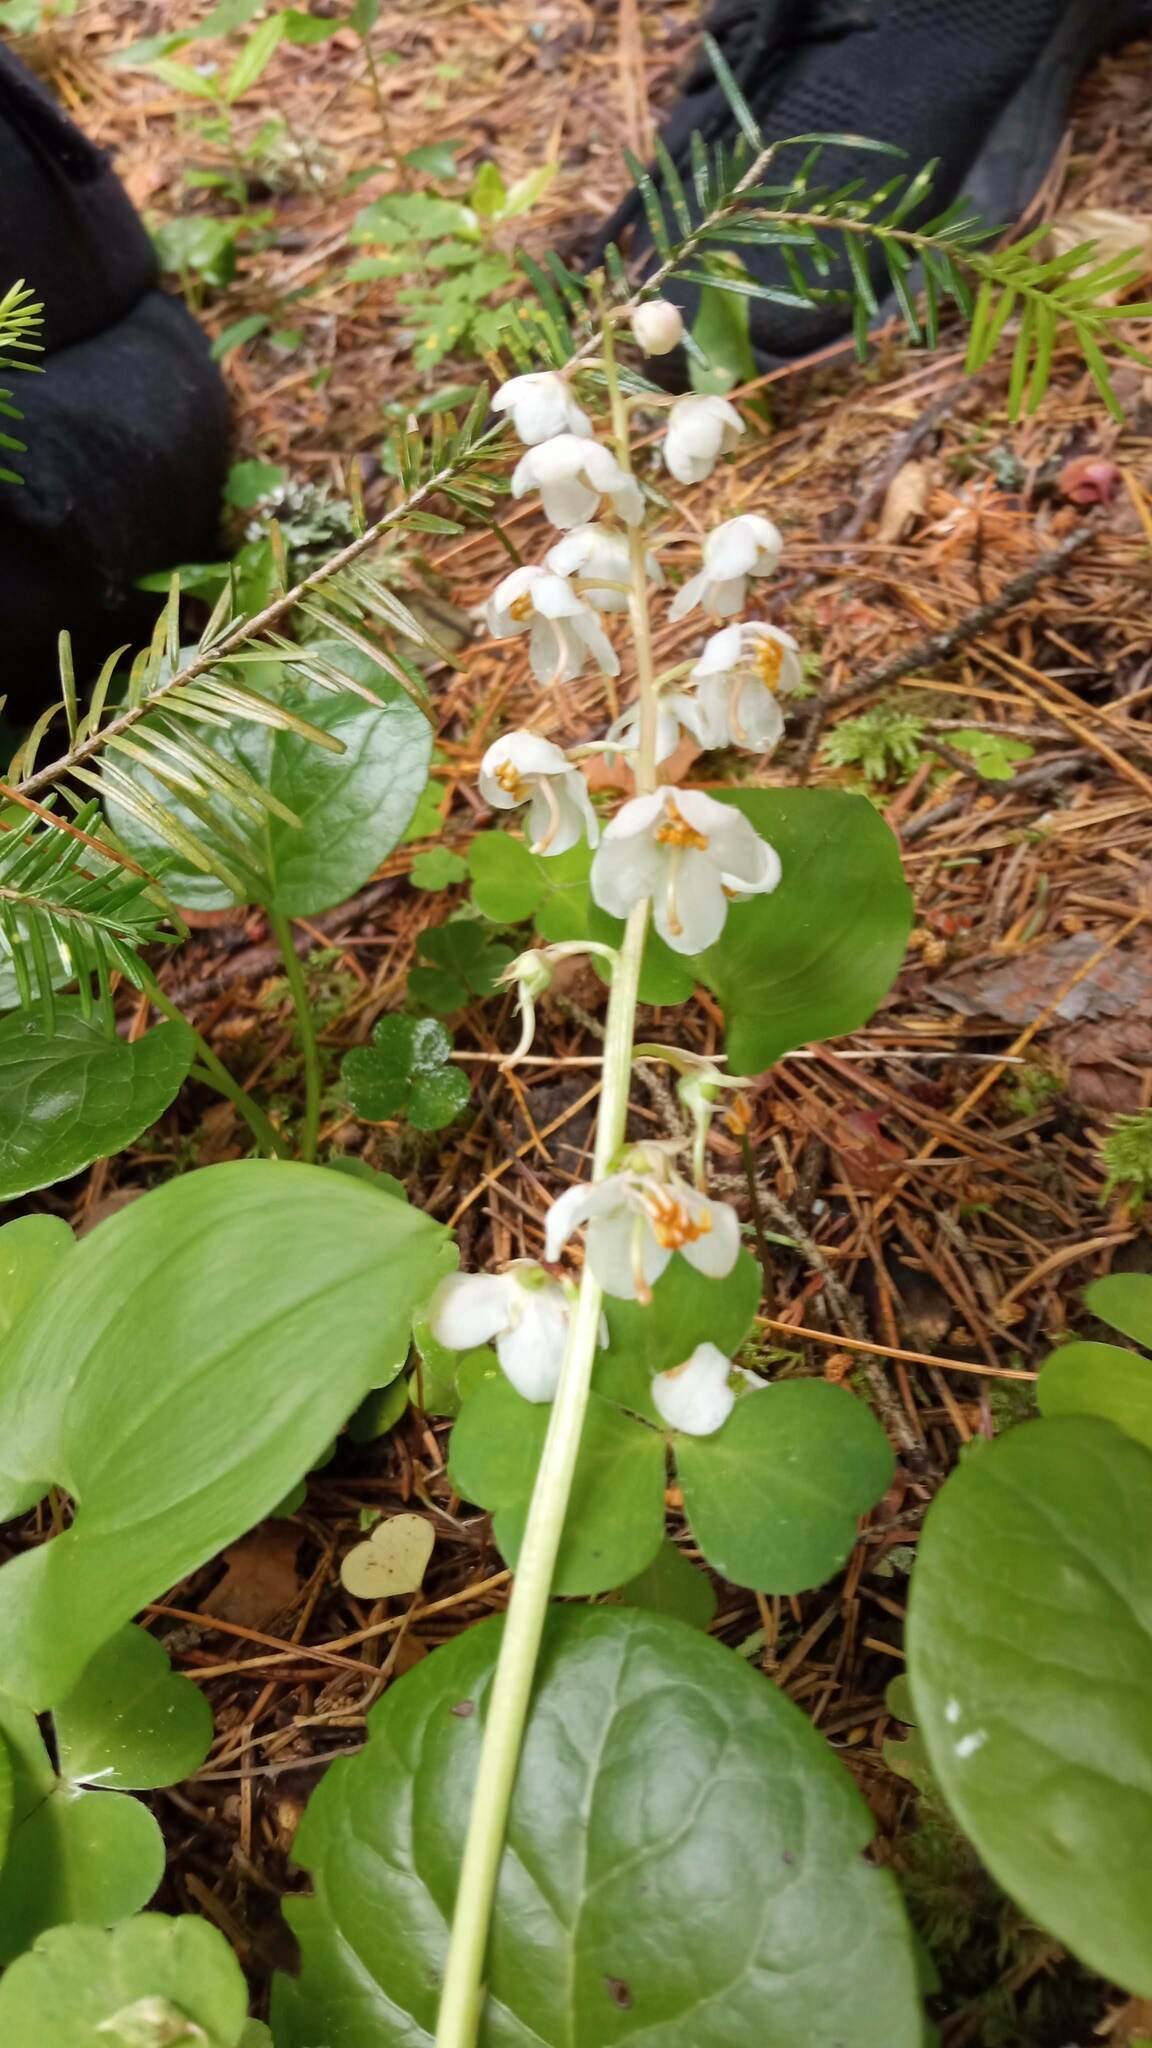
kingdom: Plantae
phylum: Tracheophyta
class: Magnoliopsida
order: Ericales
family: Ericaceae
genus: Pyrola
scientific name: Pyrola rotundifolia
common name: Round-leaved wintergreen
